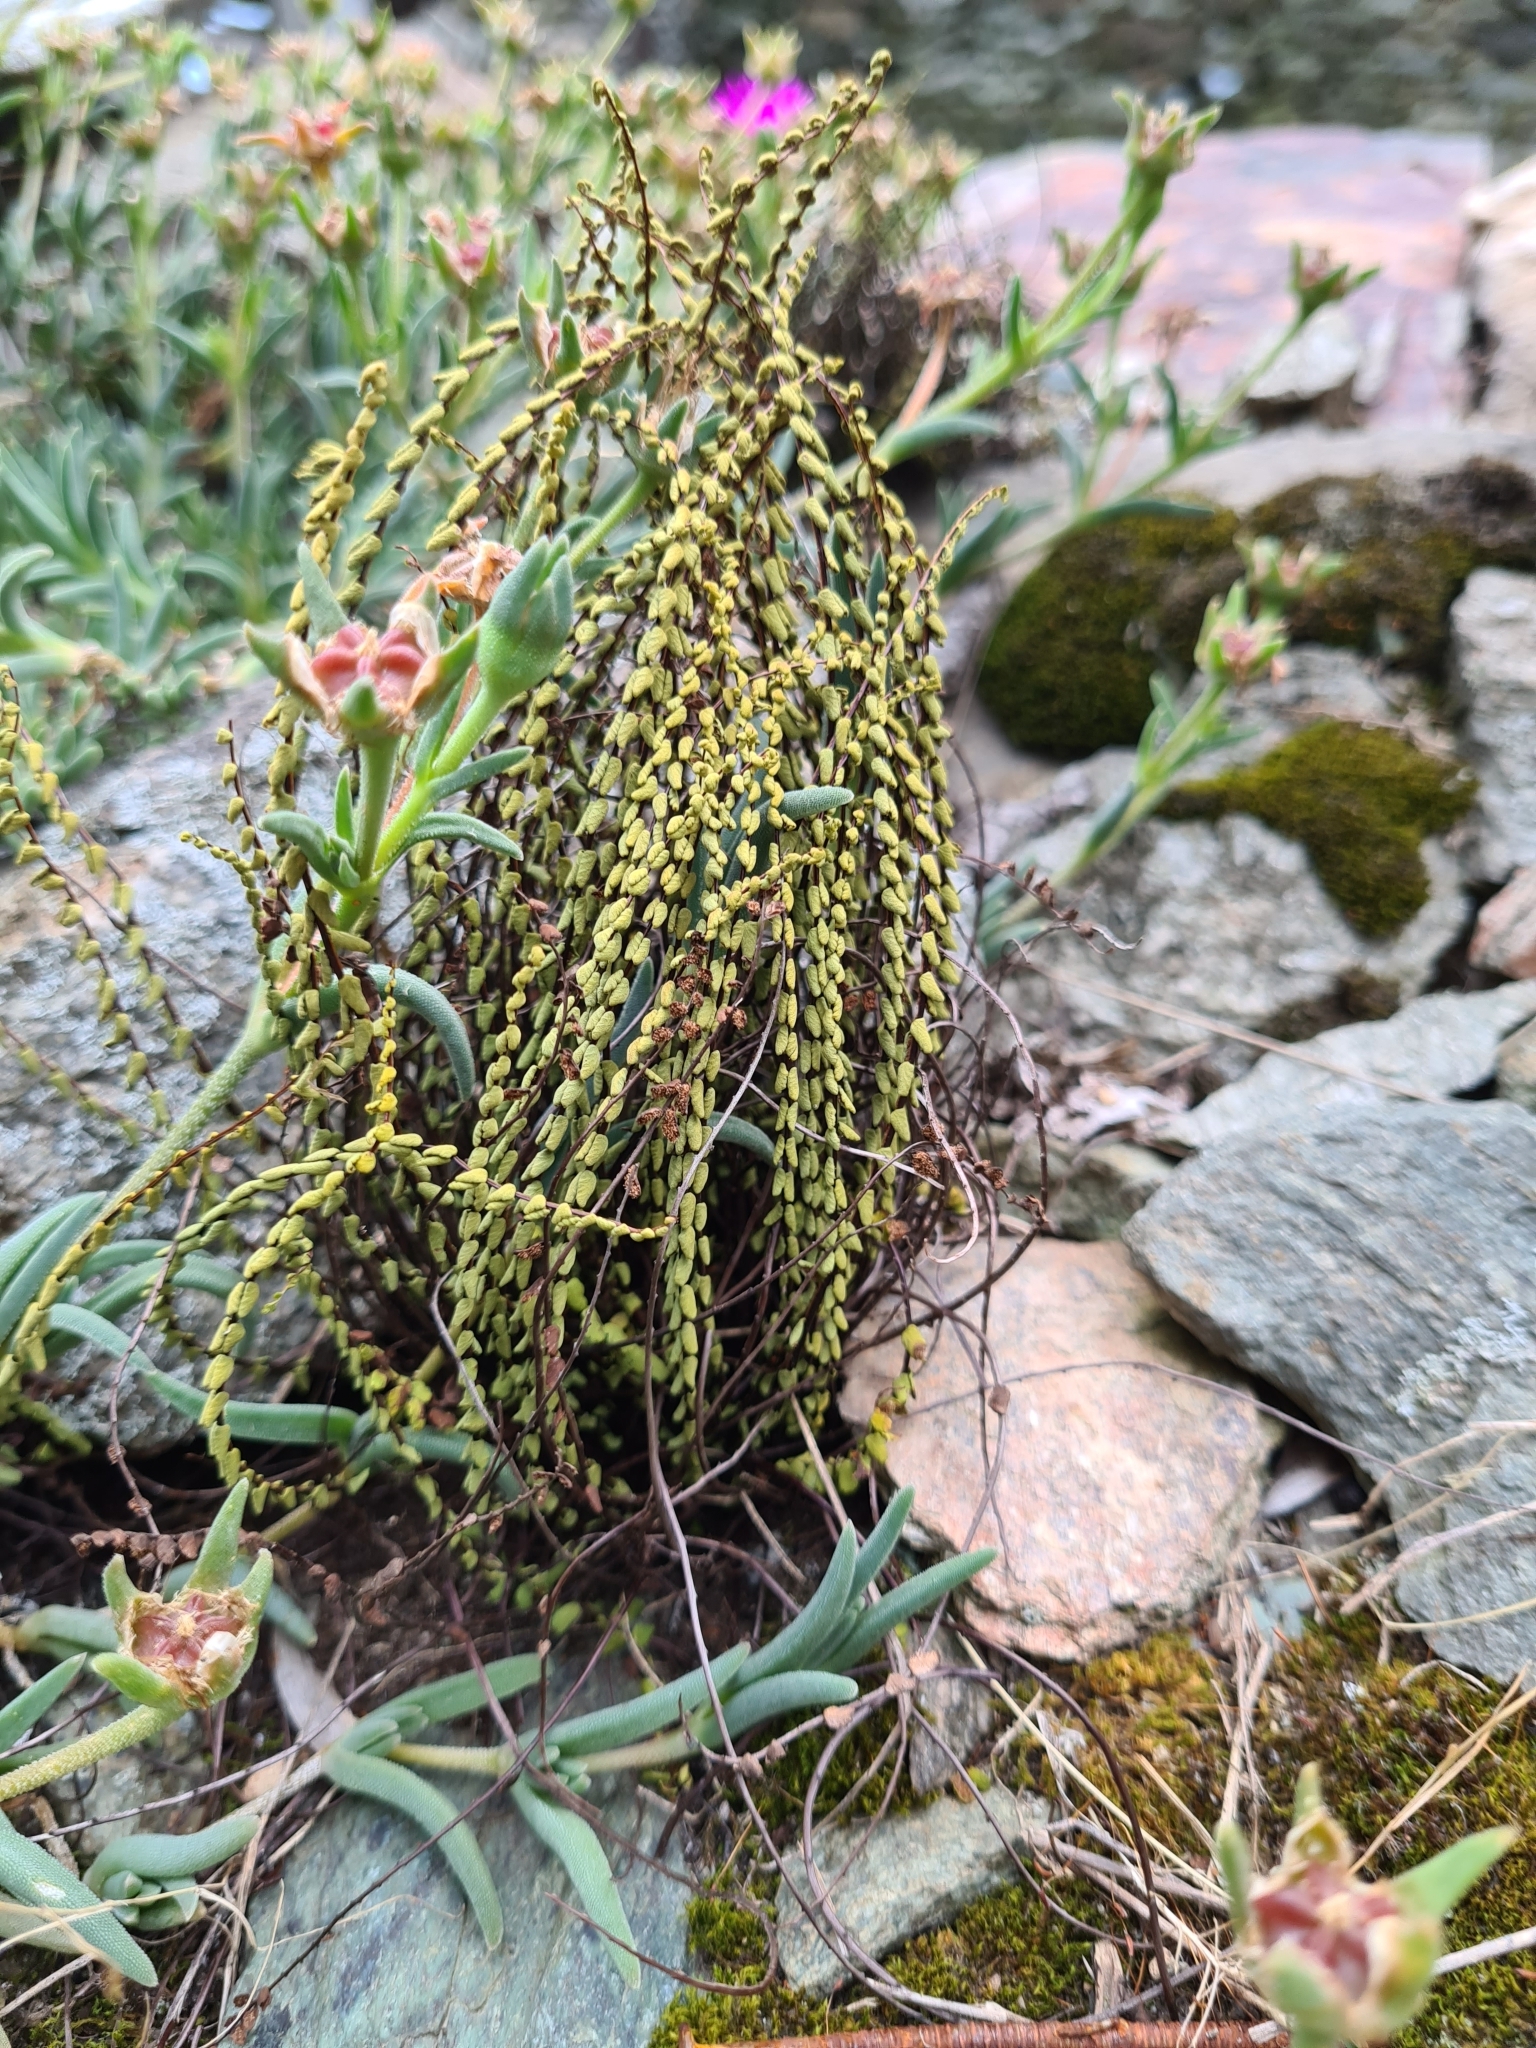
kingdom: Plantae
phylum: Tracheophyta
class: Polypodiopsida
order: Polypodiales
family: Aspleniaceae
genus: Asplenium
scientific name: Asplenium trichomanes
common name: Maidenhair spleenwort
